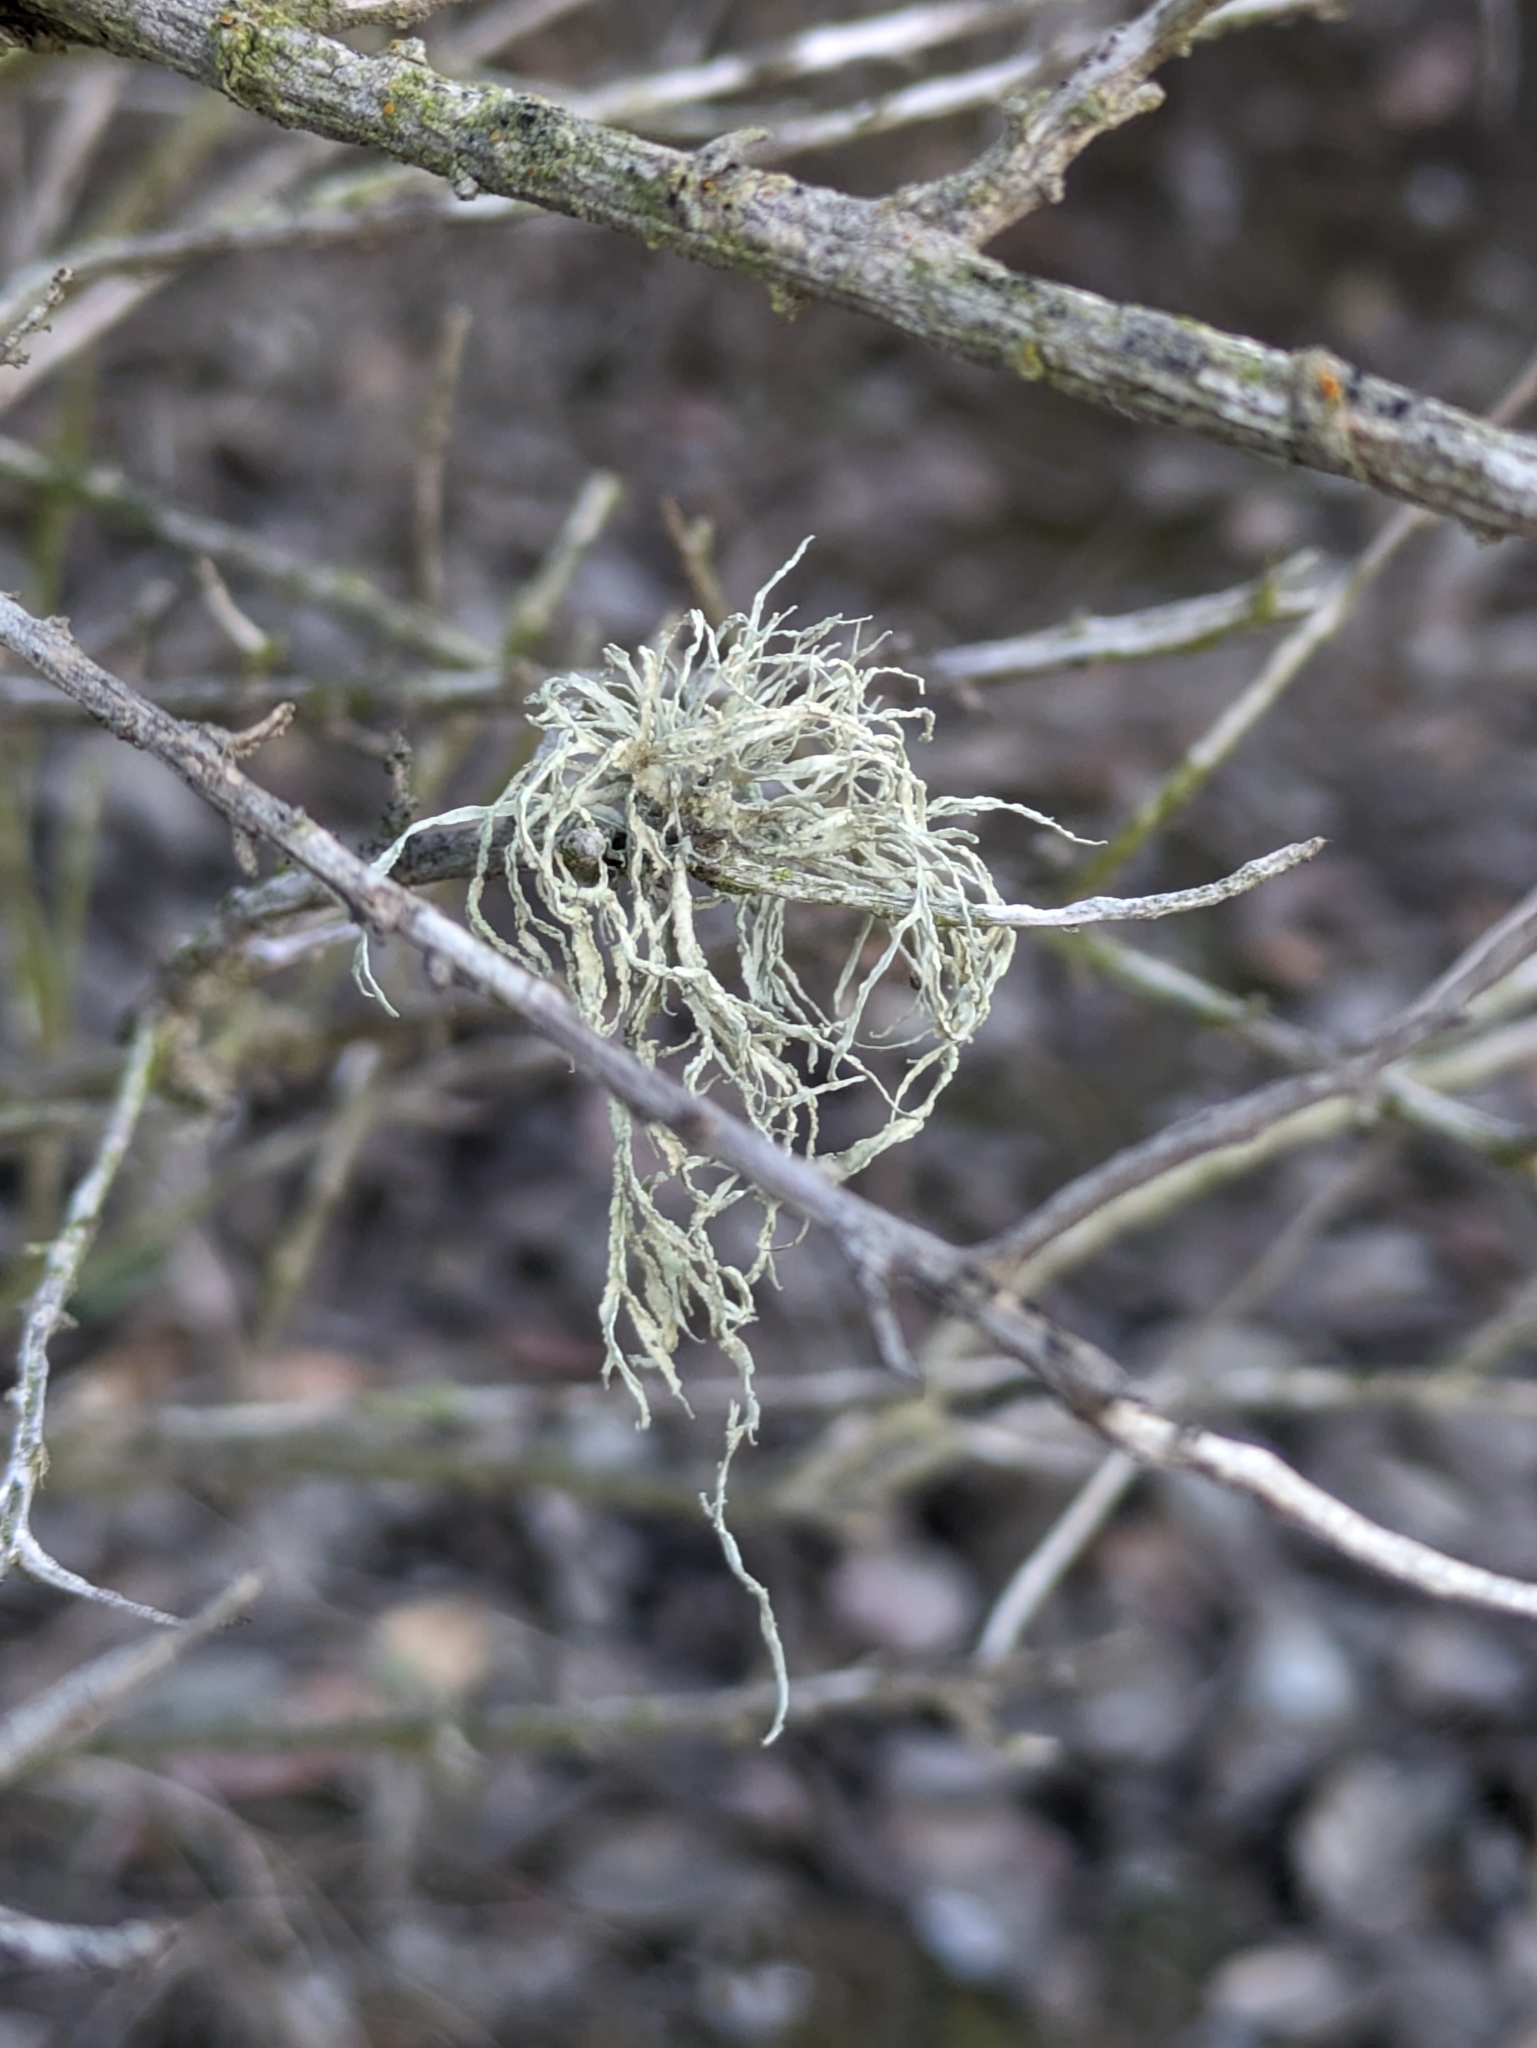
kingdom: Fungi
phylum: Ascomycota
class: Lecanoromycetes
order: Lecanorales
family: Ramalinaceae
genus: Ramalina
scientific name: Ramalina farinacea
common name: Farinose cartilage lichen
